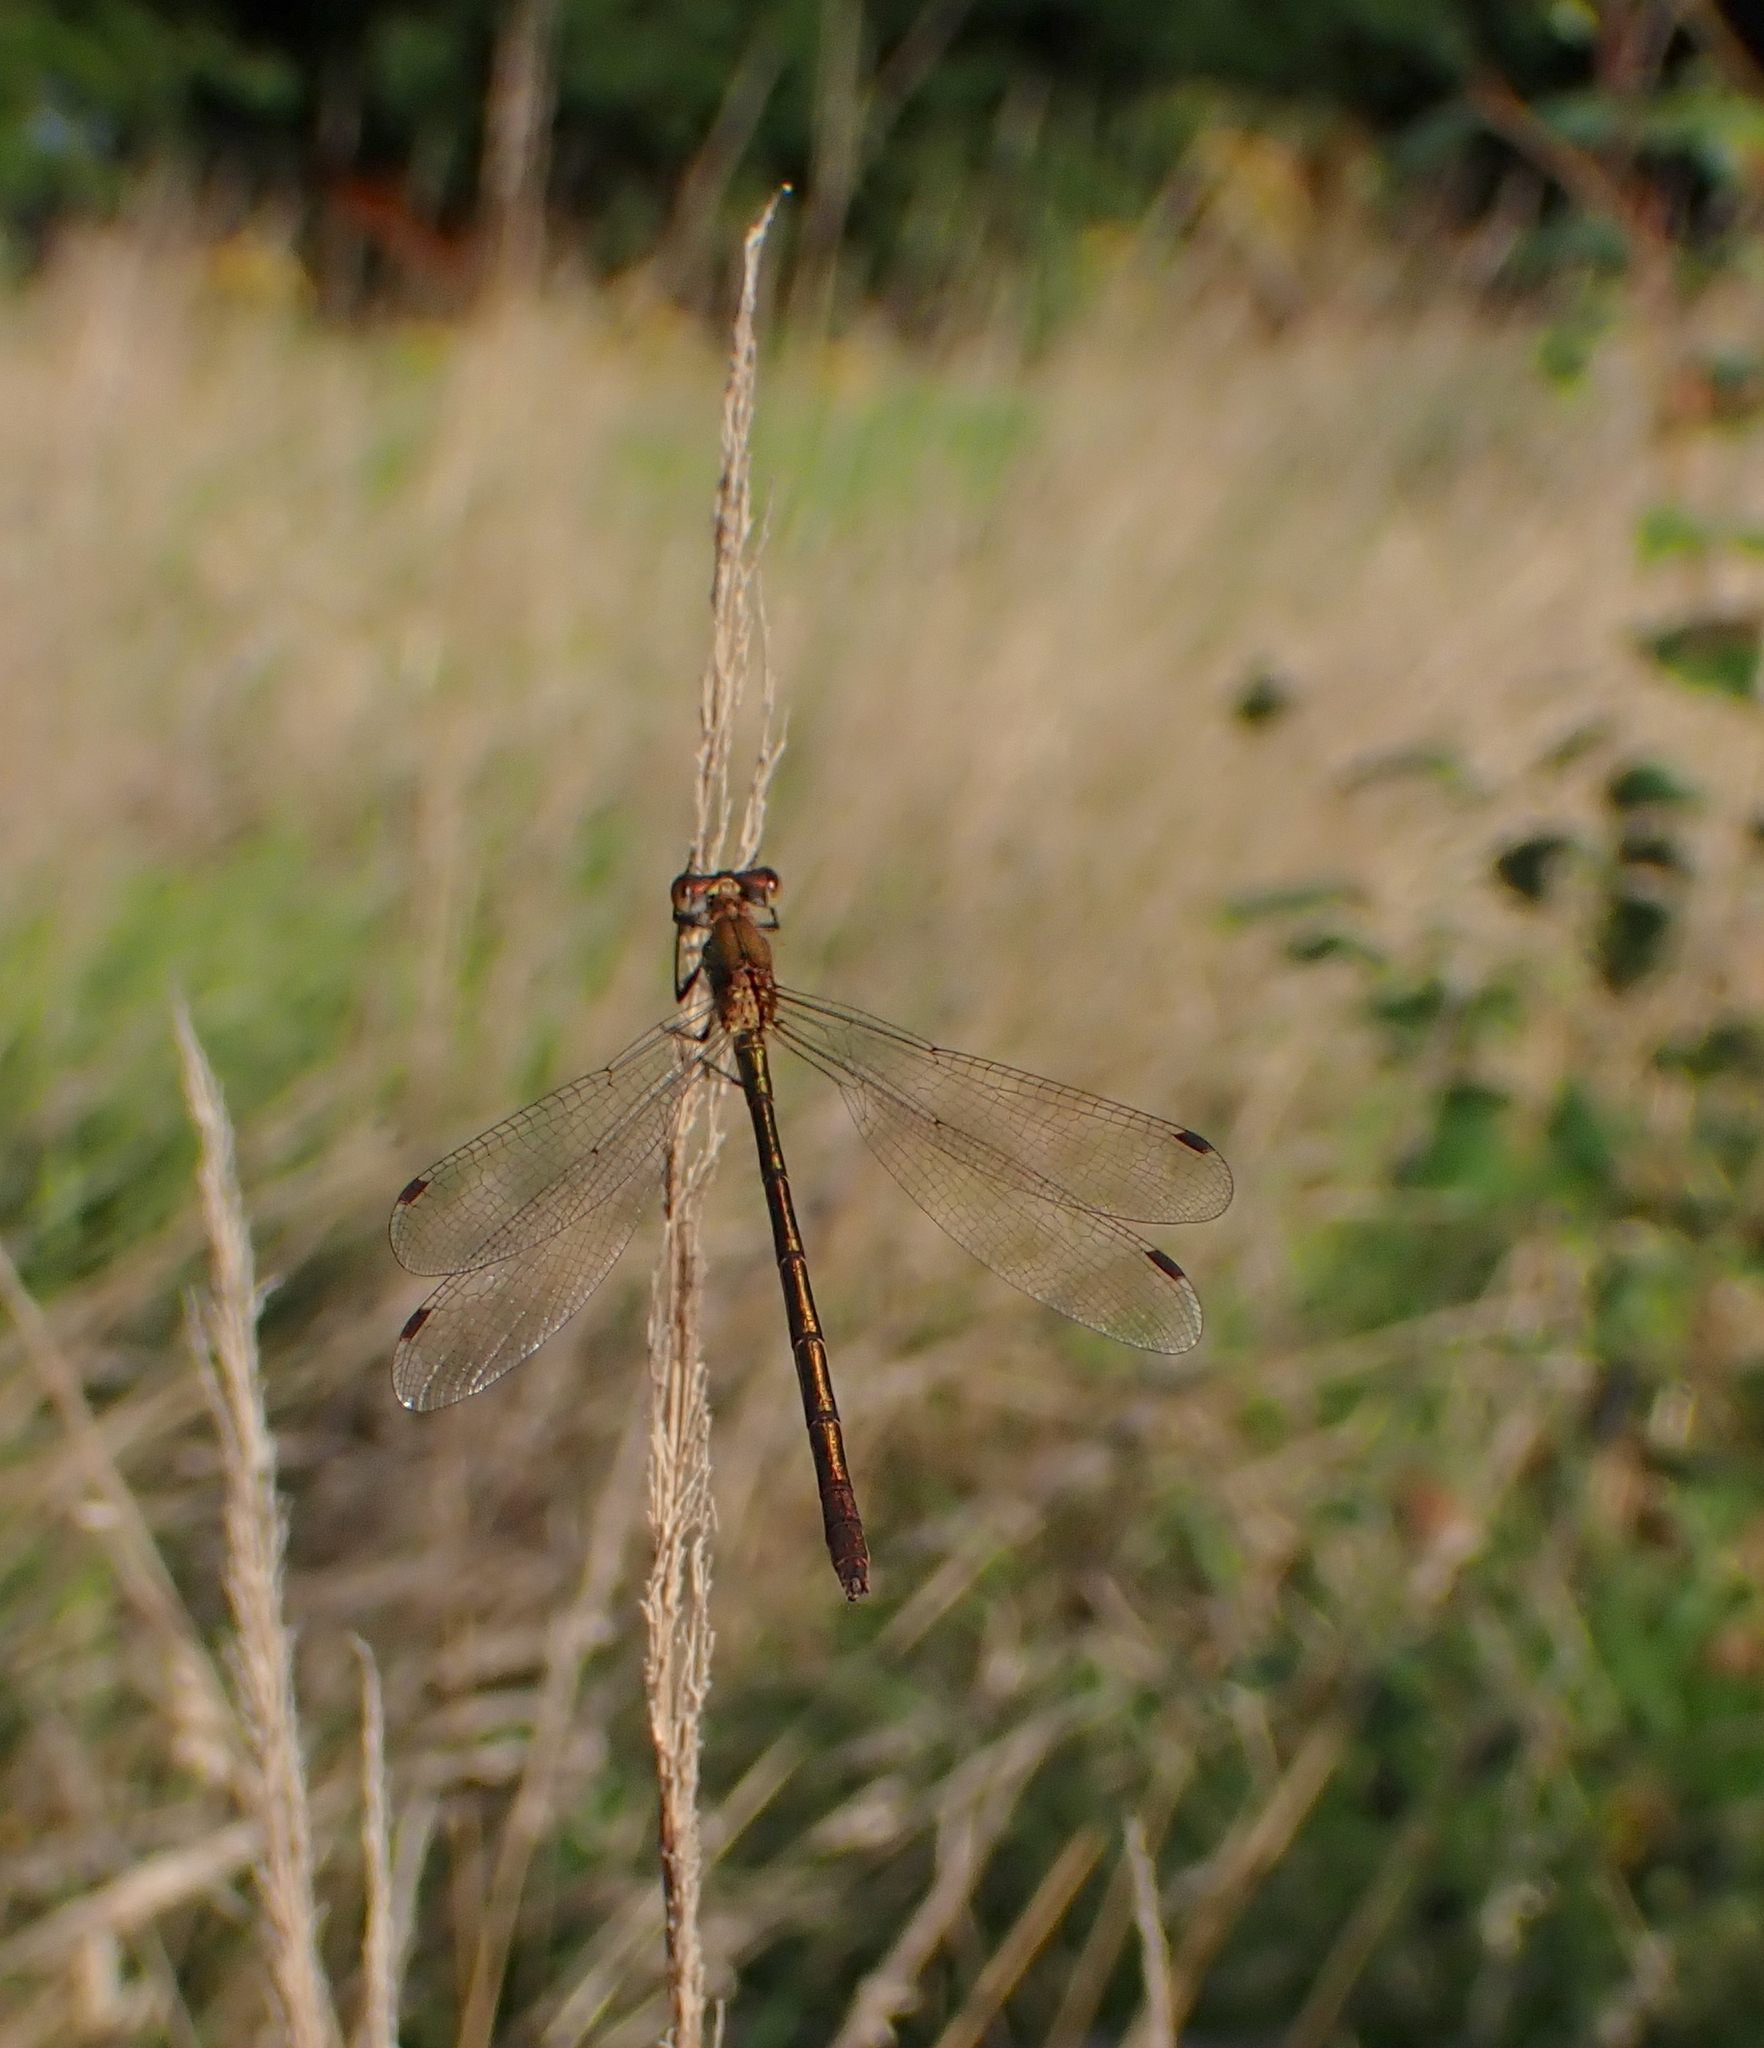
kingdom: Animalia
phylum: Arthropoda
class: Insecta
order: Odonata
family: Lestidae
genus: Lestes
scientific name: Lestes sponsa
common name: Common spreadwing
